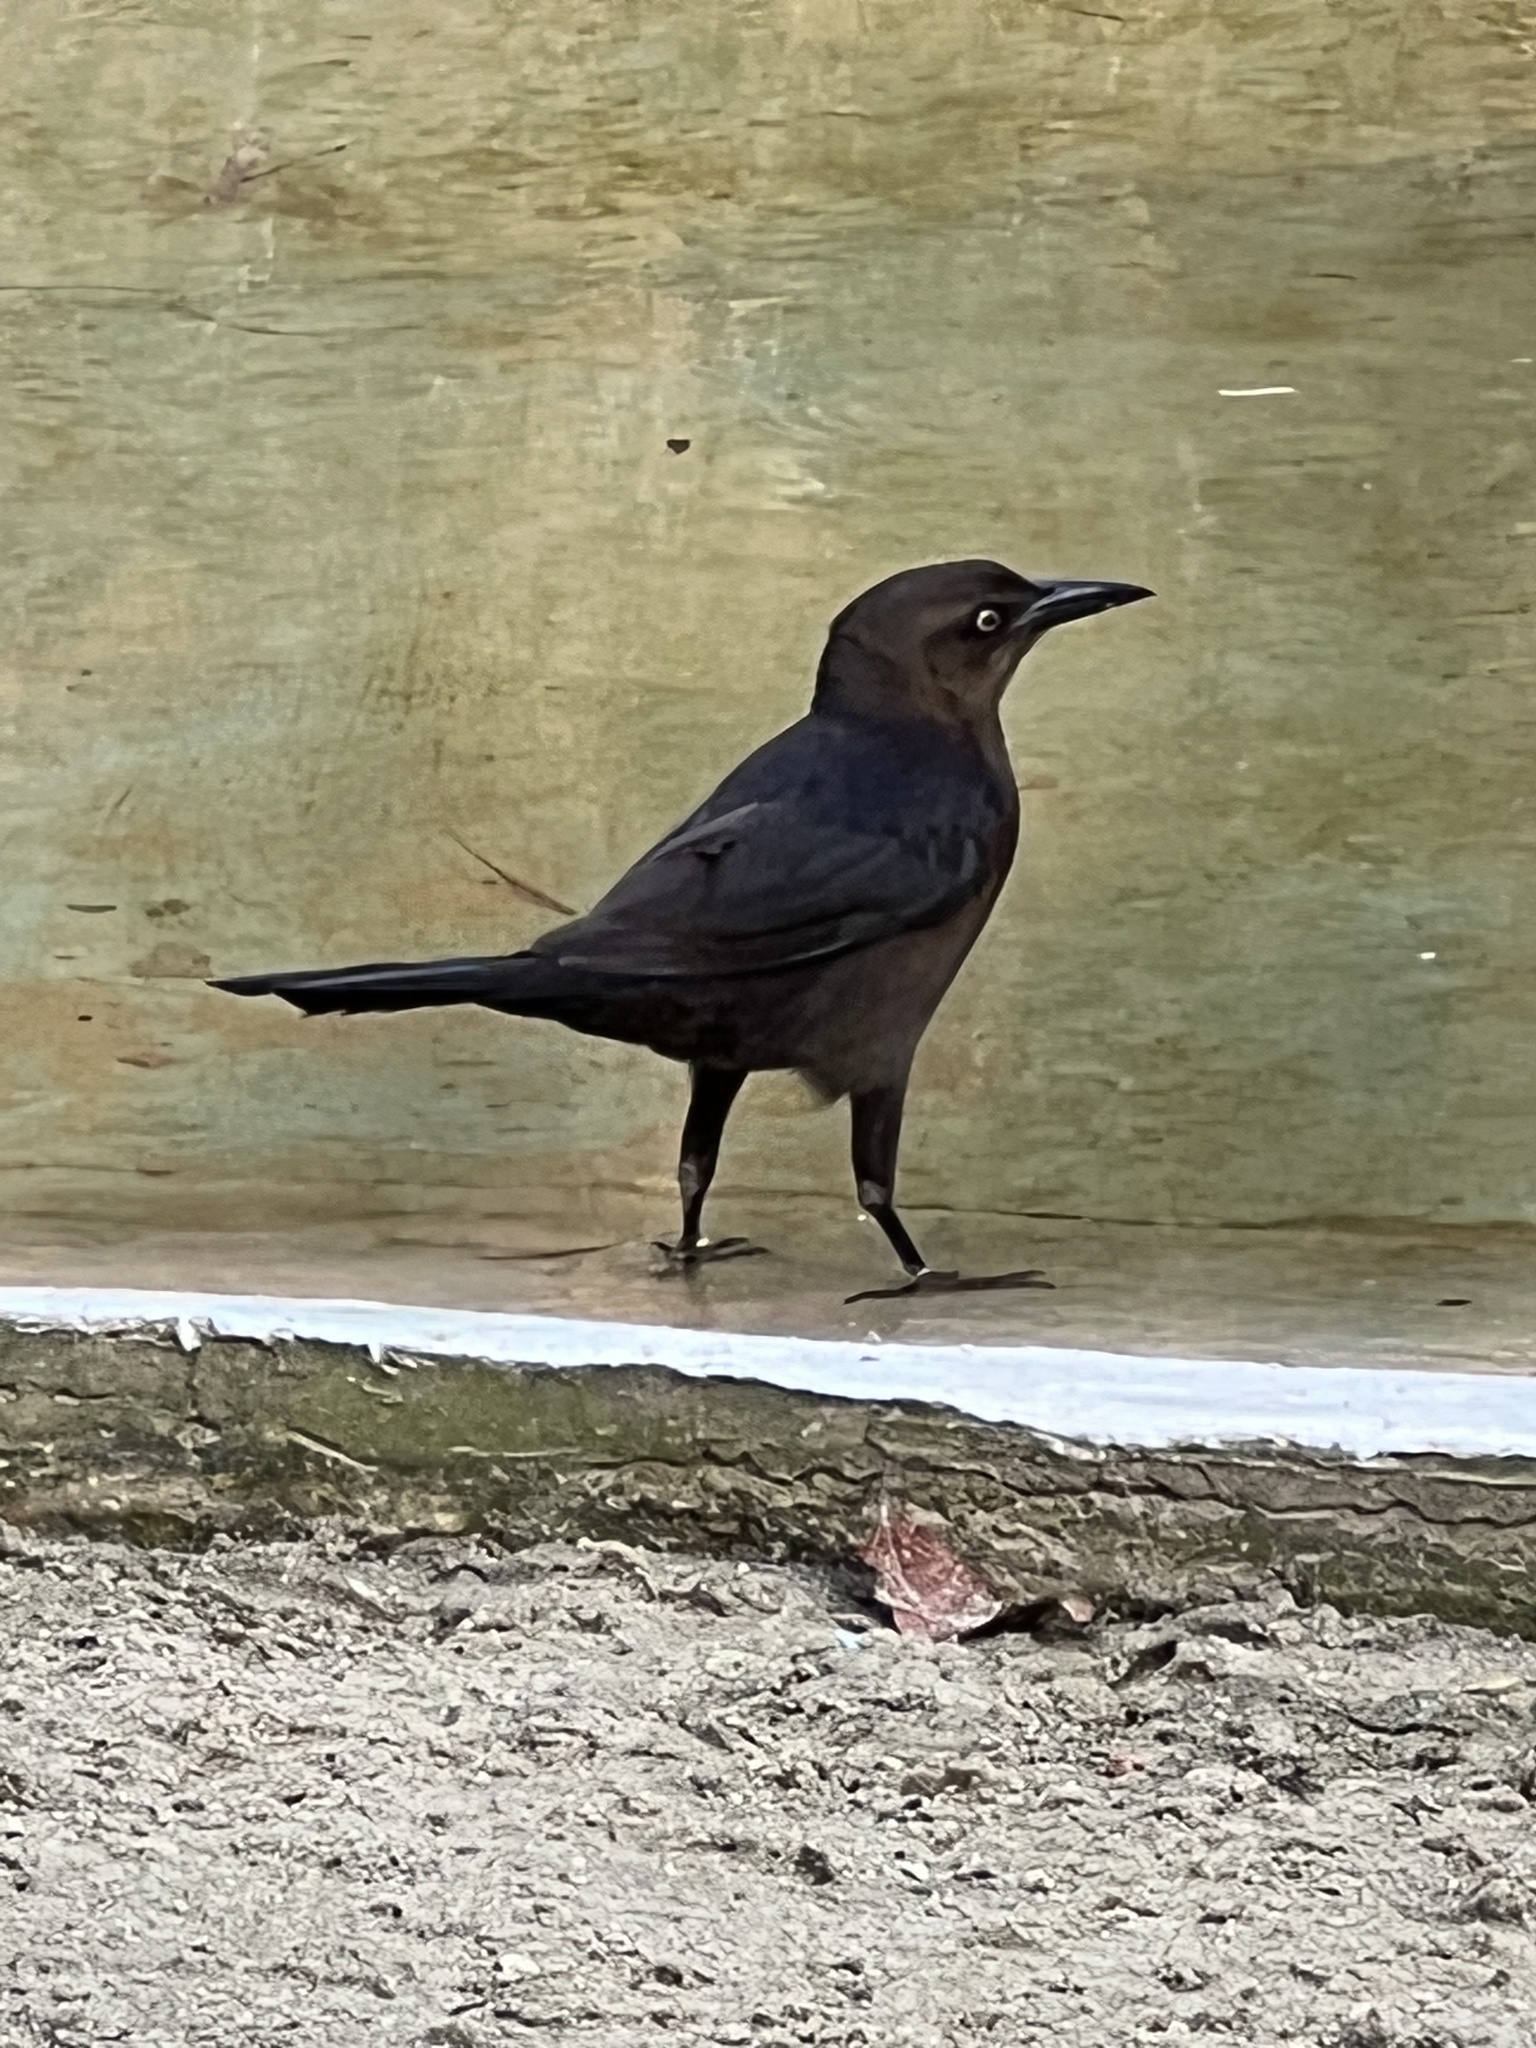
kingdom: Animalia
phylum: Chordata
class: Aves
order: Passeriformes
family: Icteridae
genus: Quiscalus
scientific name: Quiscalus mexicanus
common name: Great-tailed grackle
